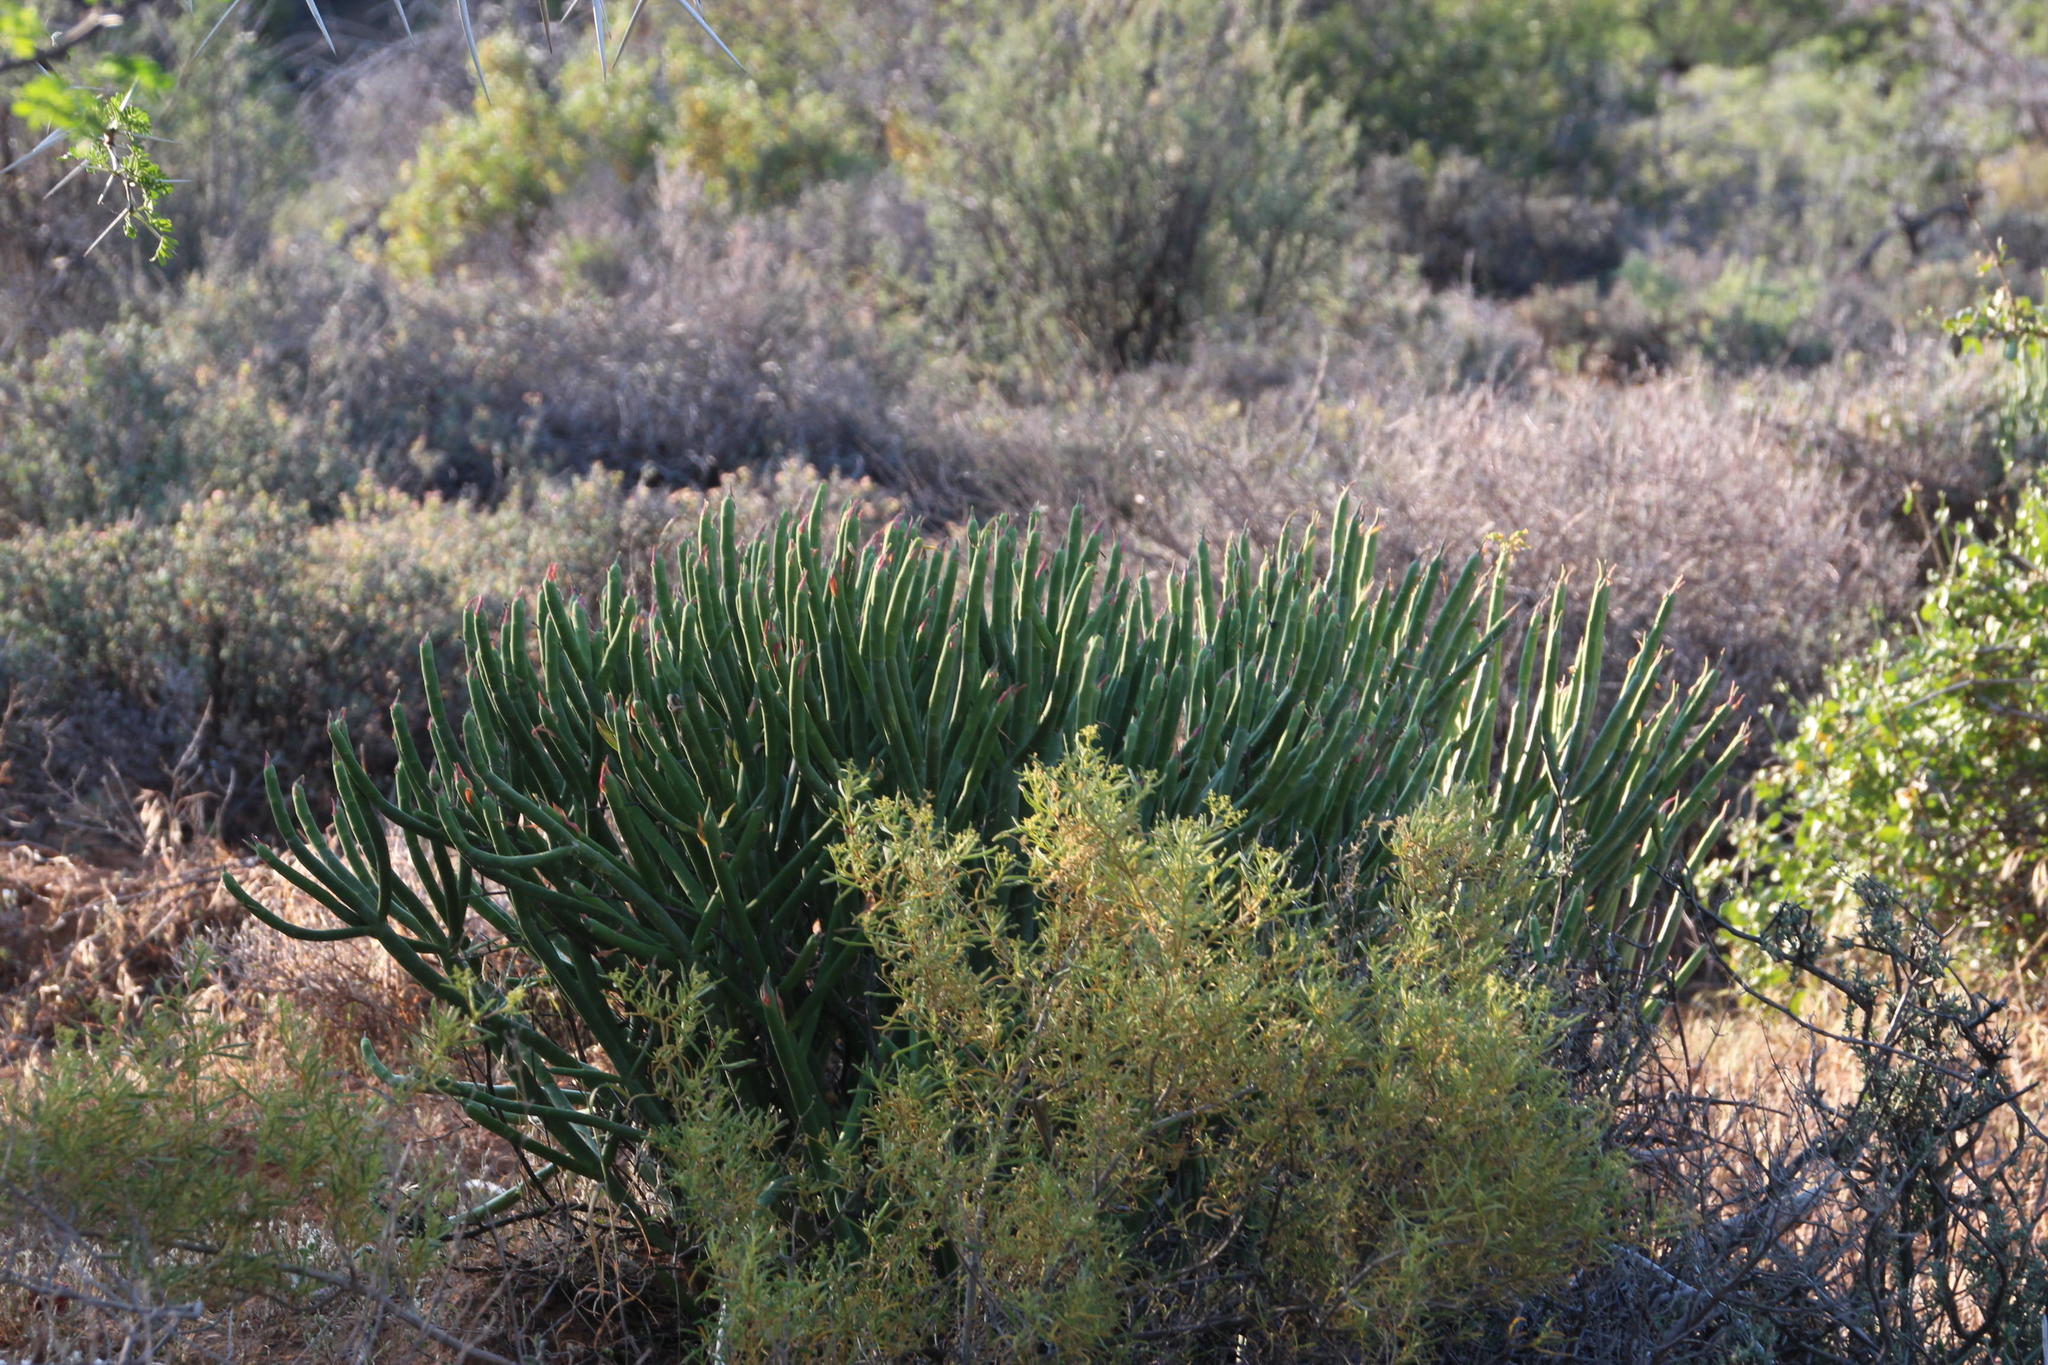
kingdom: Plantae
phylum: Tracheophyta
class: Magnoliopsida
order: Malpighiales
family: Euphorbiaceae
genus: Euphorbia
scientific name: Euphorbia mauritanica
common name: Jackal's-food
